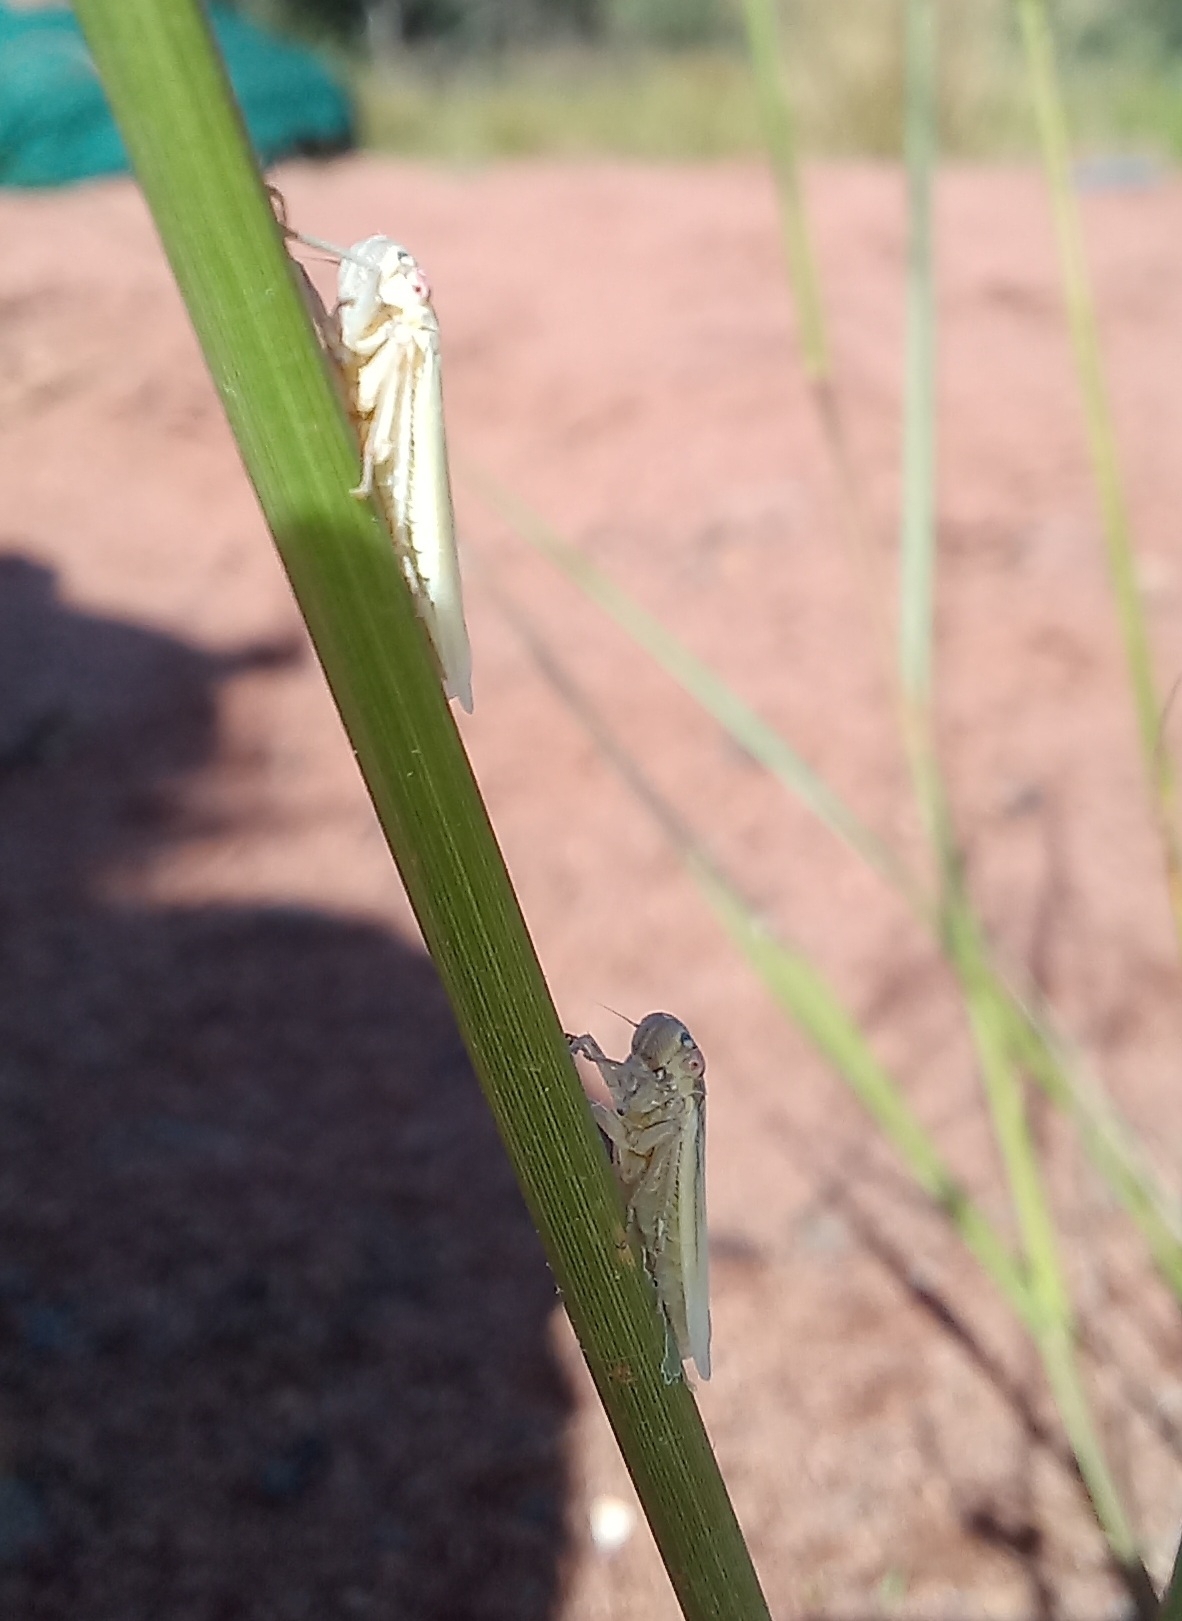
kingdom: Animalia
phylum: Arthropoda
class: Insecta
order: Hemiptera
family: Cercopidae
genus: Locris
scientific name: Locris areata
